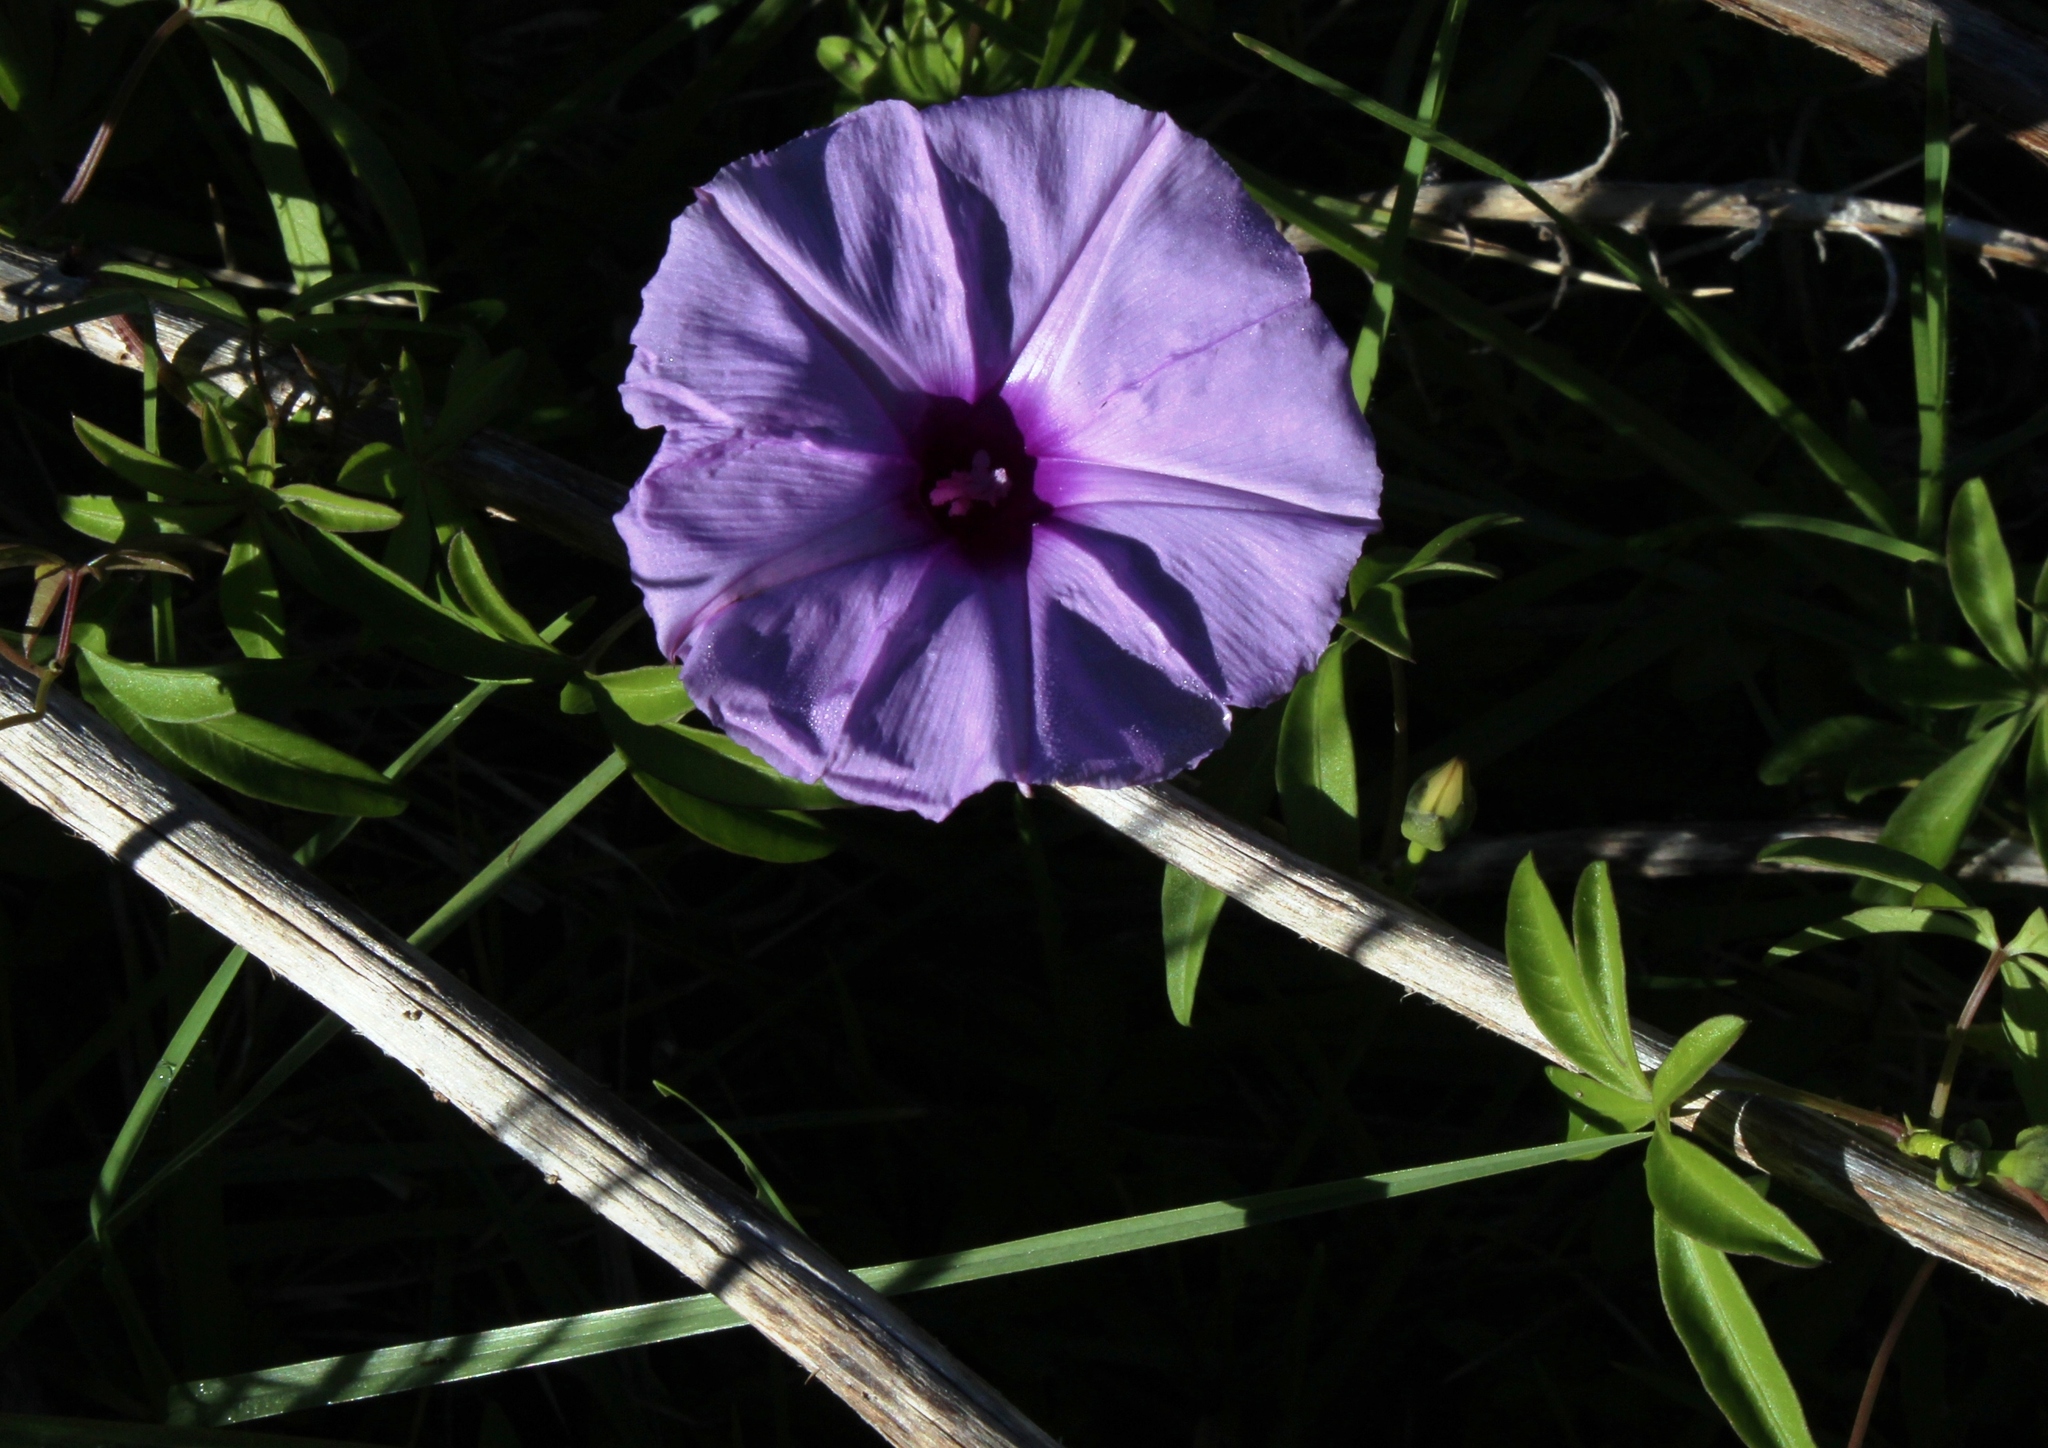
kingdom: Plantae
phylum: Tracheophyta
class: Magnoliopsida
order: Solanales
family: Convolvulaceae
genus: Ipomoea
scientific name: Ipomoea cairica
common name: Mile a minute vine
